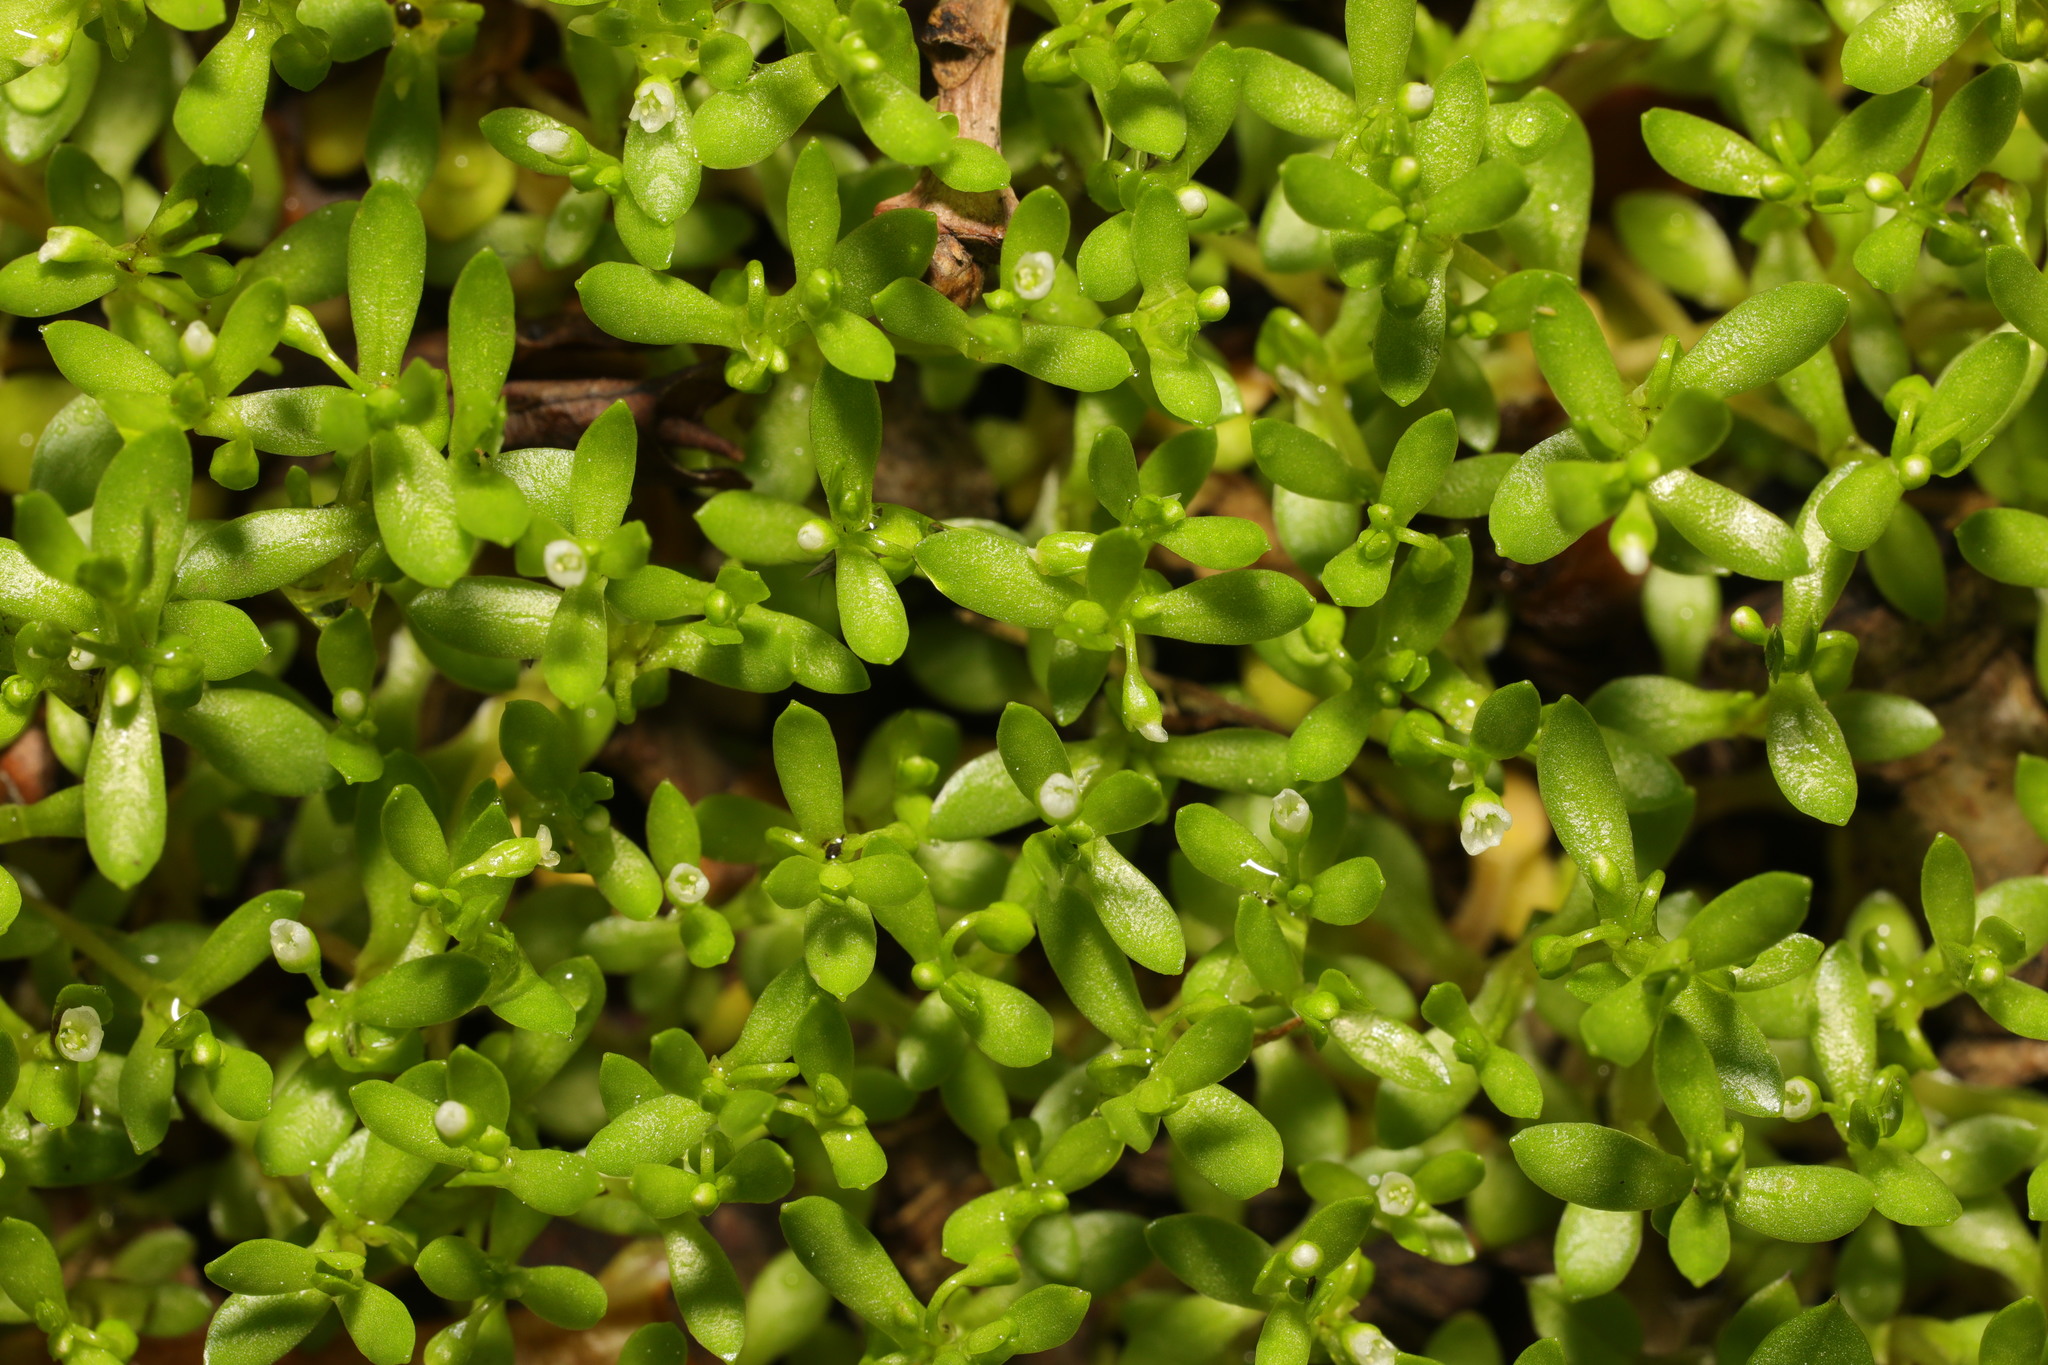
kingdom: Plantae
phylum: Tracheophyta
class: Magnoliopsida
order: Caryophyllales
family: Montiaceae
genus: Montia
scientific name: Montia fontana
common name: Blinks
